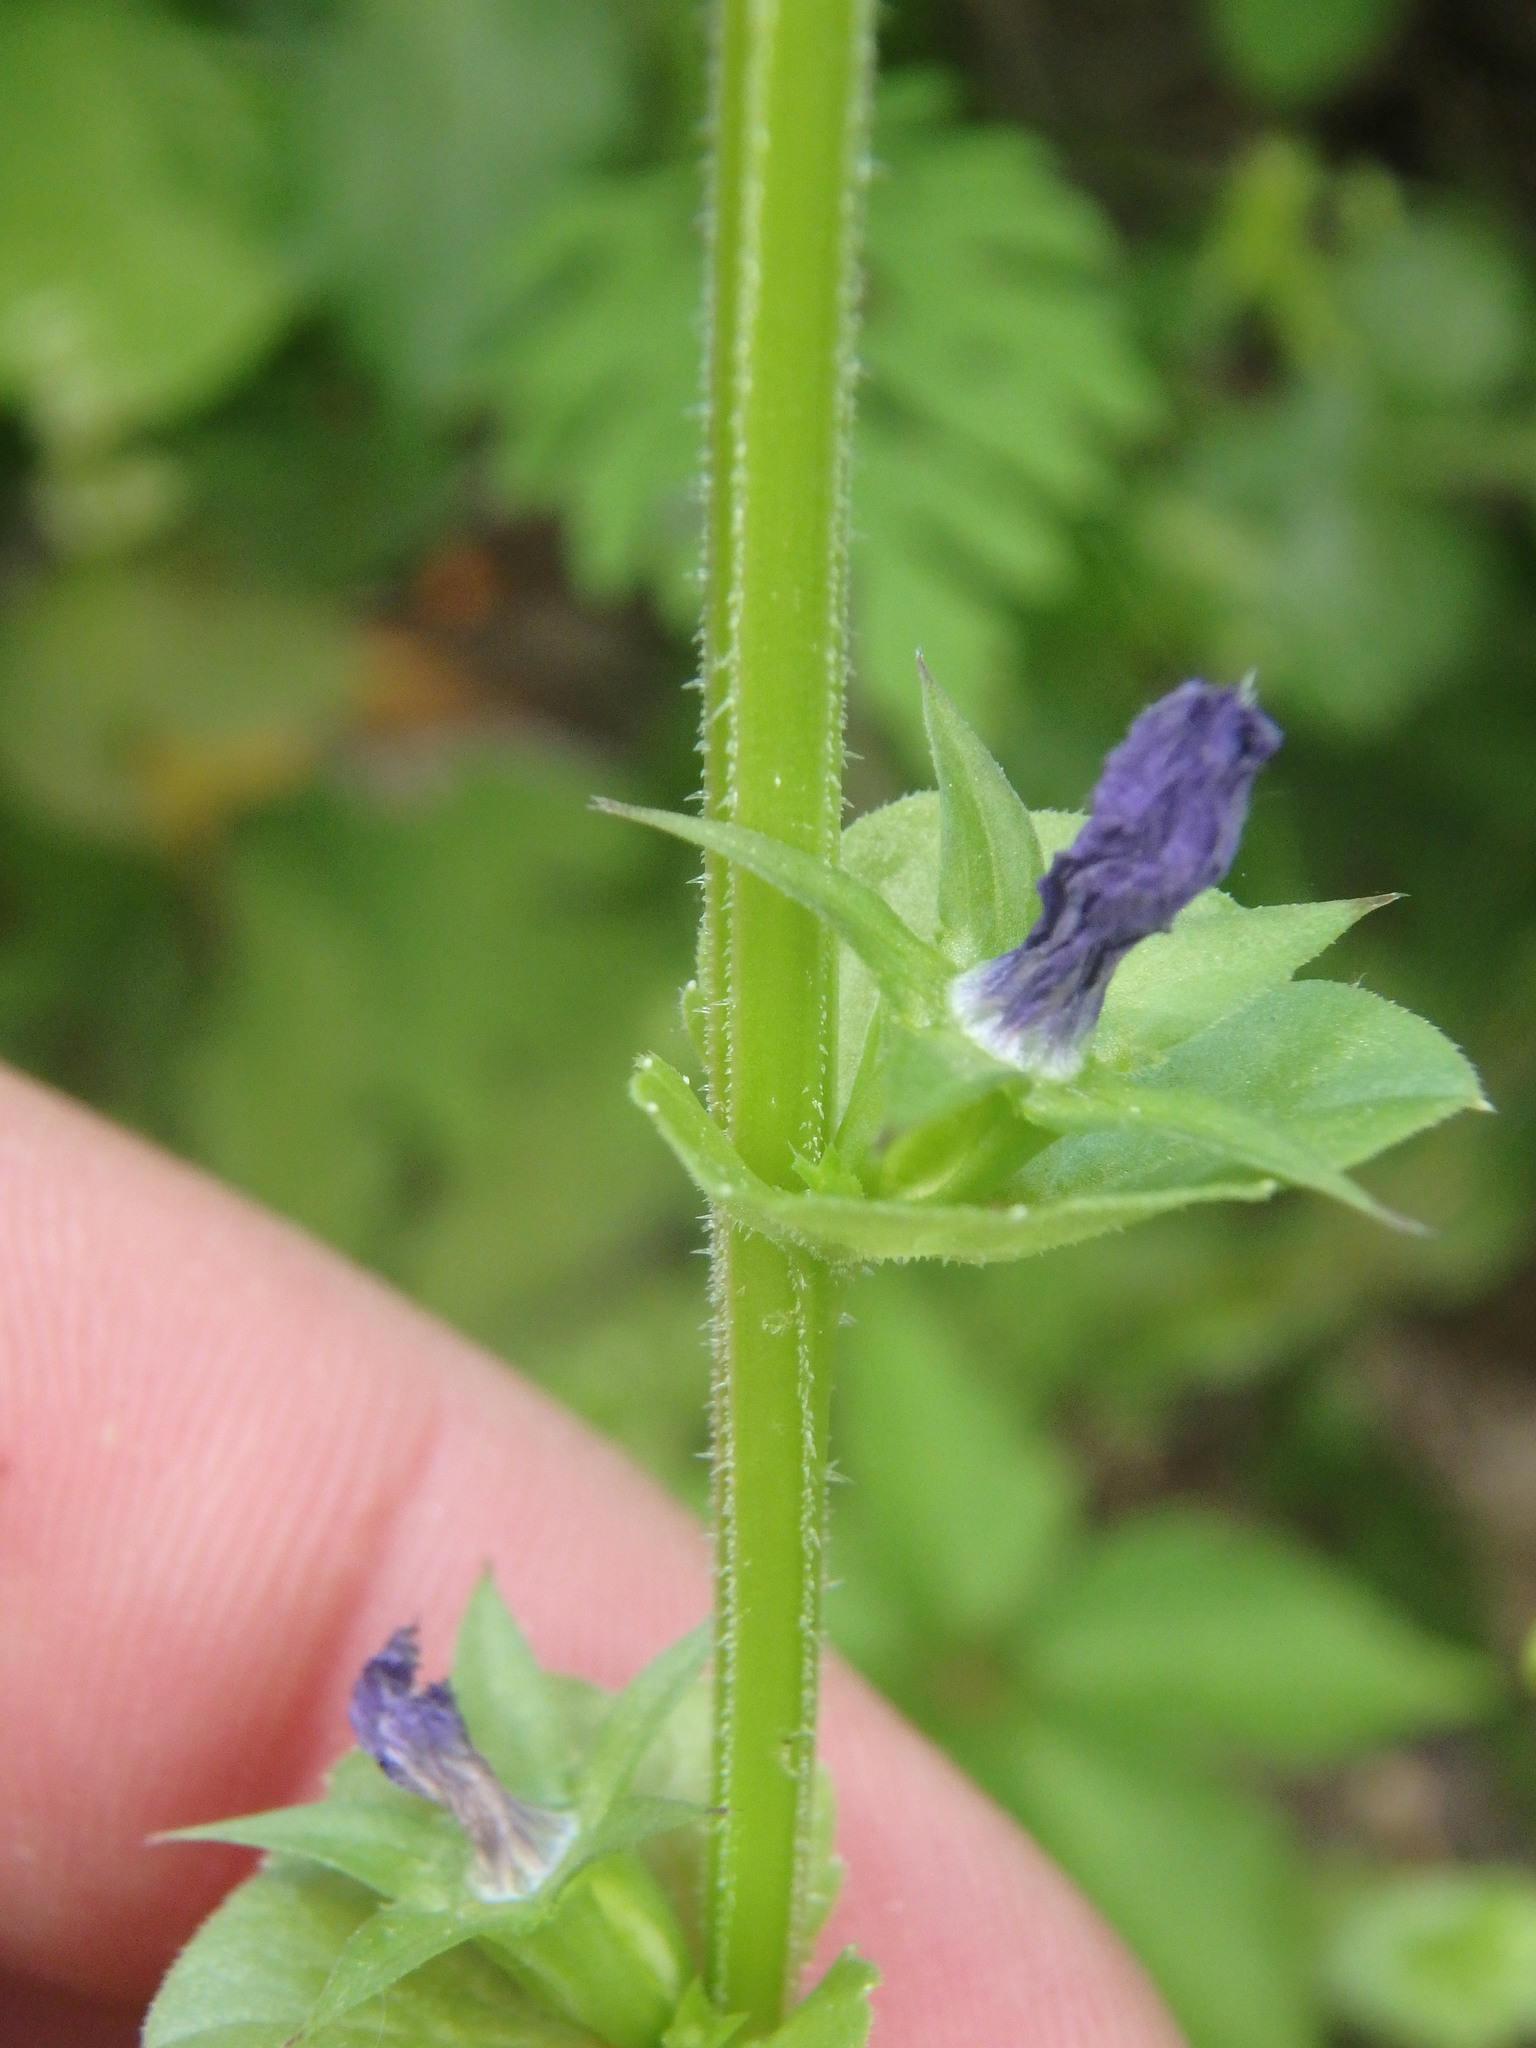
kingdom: Plantae
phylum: Tracheophyta
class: Magnoliopsida
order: Asterales
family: Campanulaceae
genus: Triodanis
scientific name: Triodanis perfoliata
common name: Clasping venus' looking-glass
